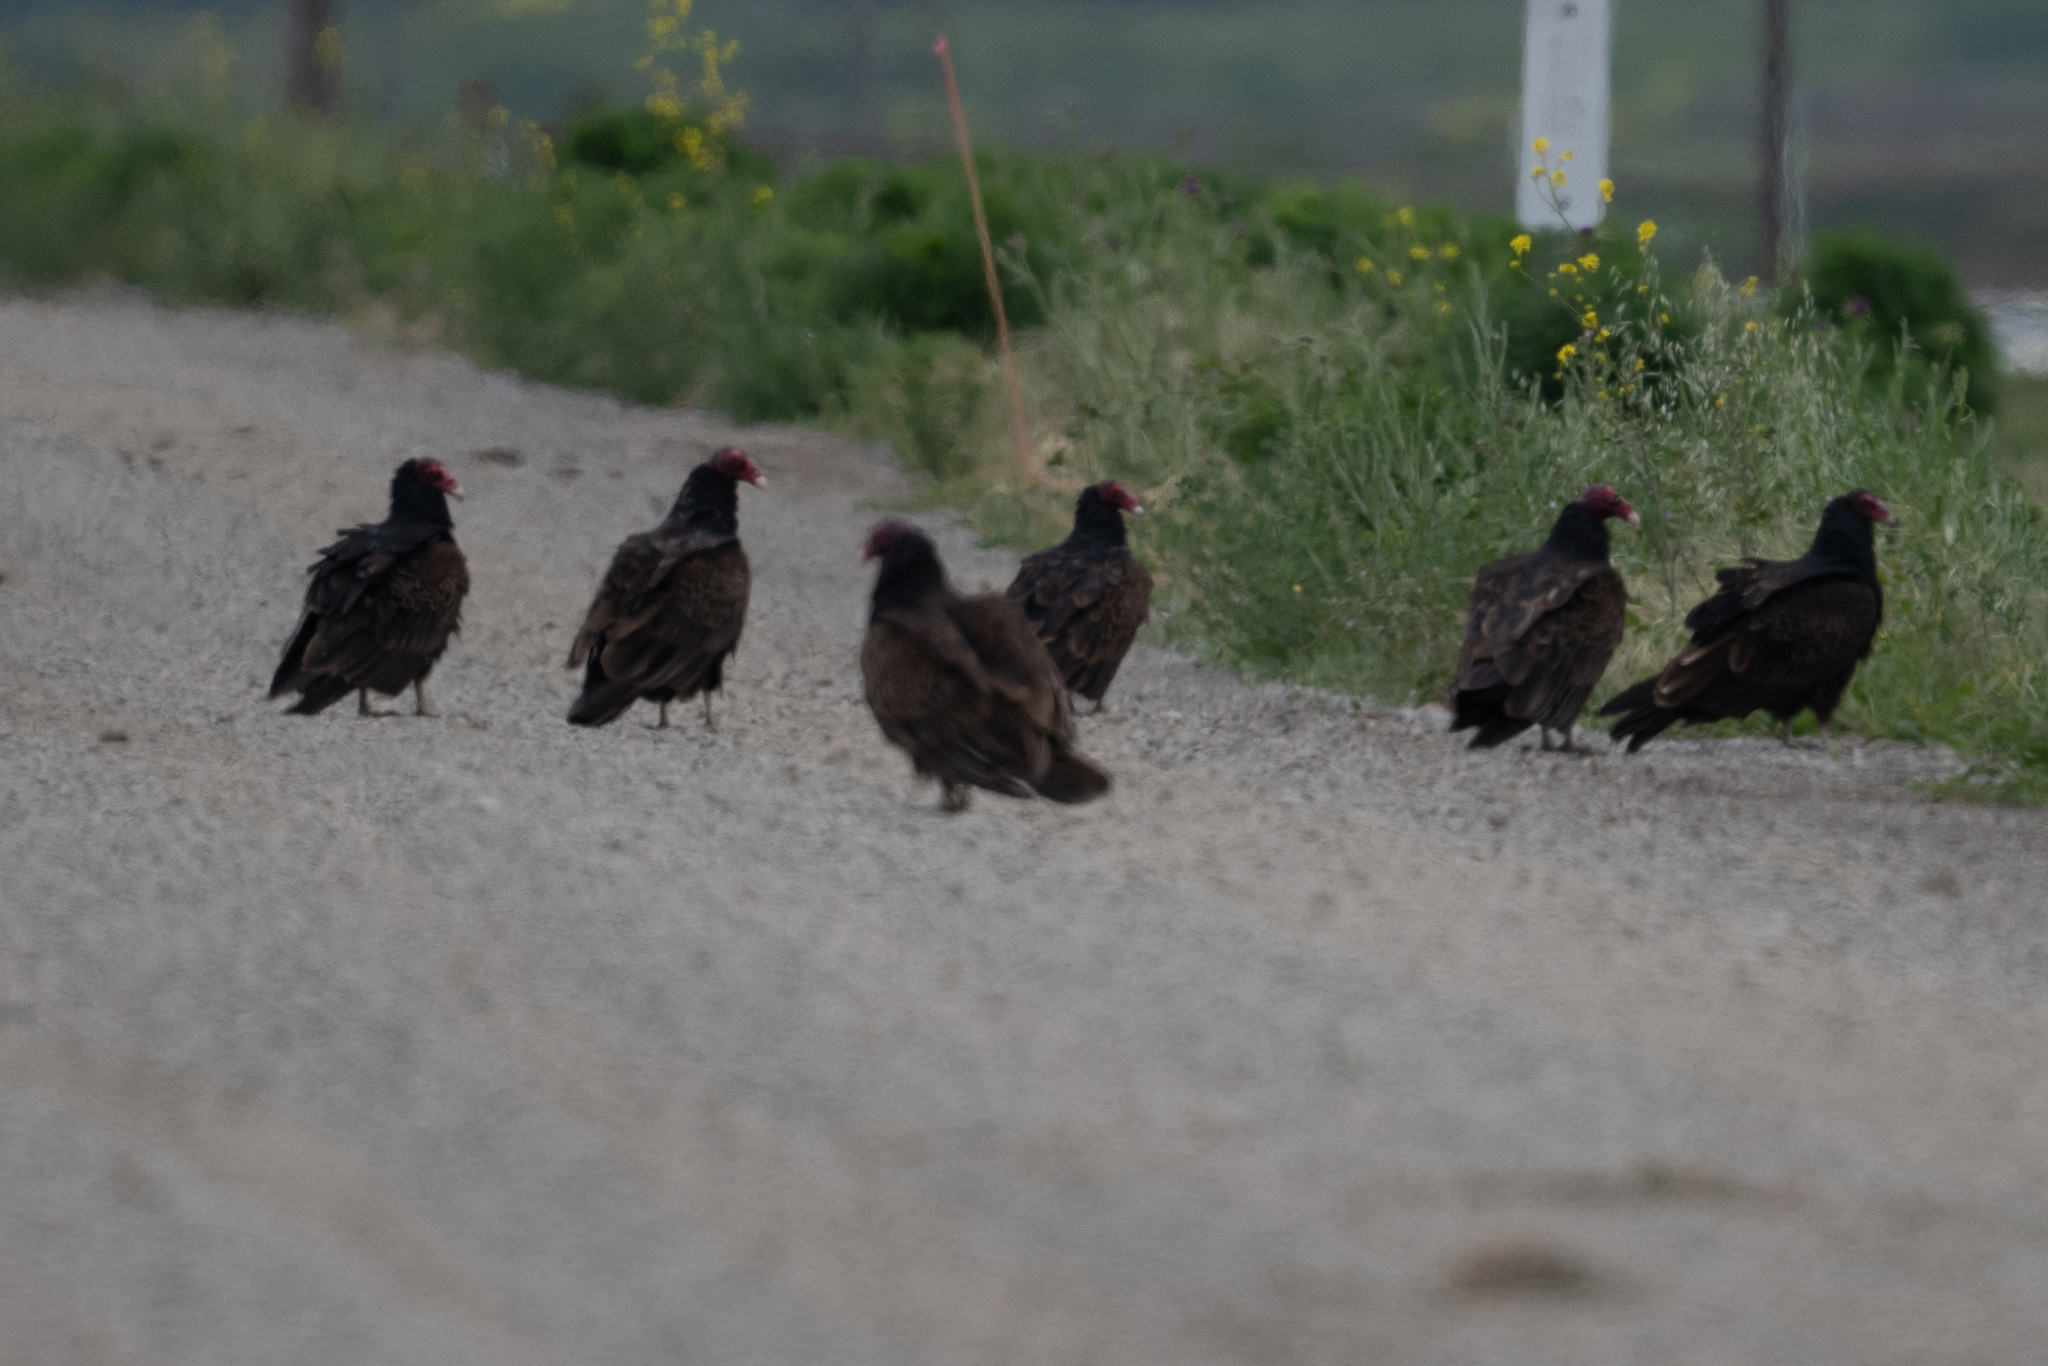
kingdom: Animalia
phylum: Chordata
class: Aves
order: Accipitriformes
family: Cathartidae
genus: Cathartes
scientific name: Cathartes aura
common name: Turkey vulture
